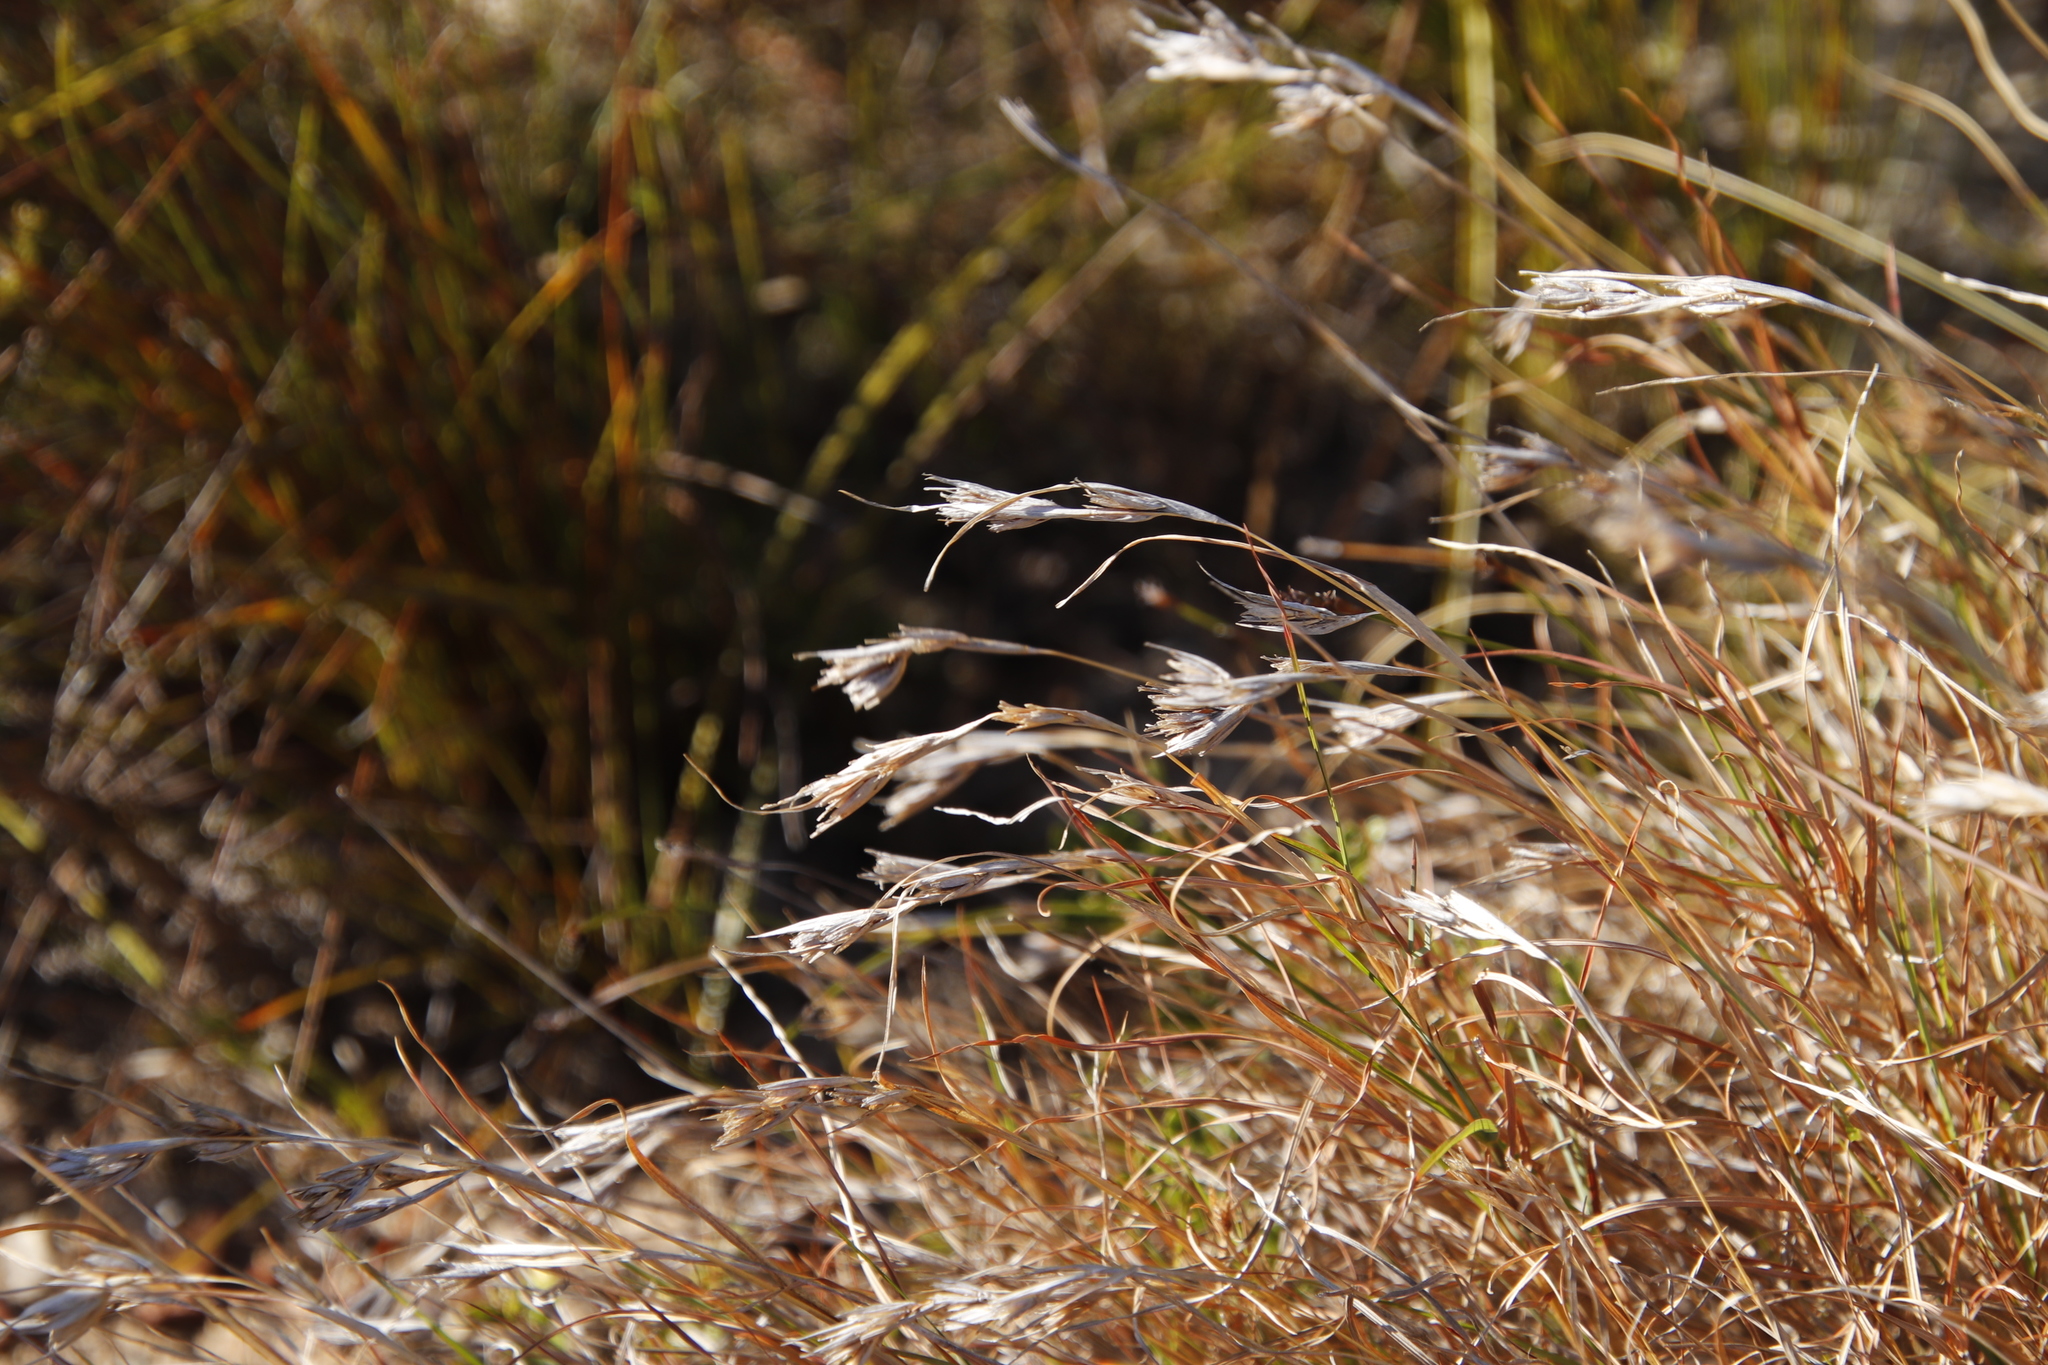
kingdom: Plantae
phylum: Tracheophyta
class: Liliopsida
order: Poales
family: Poaceae
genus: Themeda
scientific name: Themeda triandra
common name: Kangaroo grass
